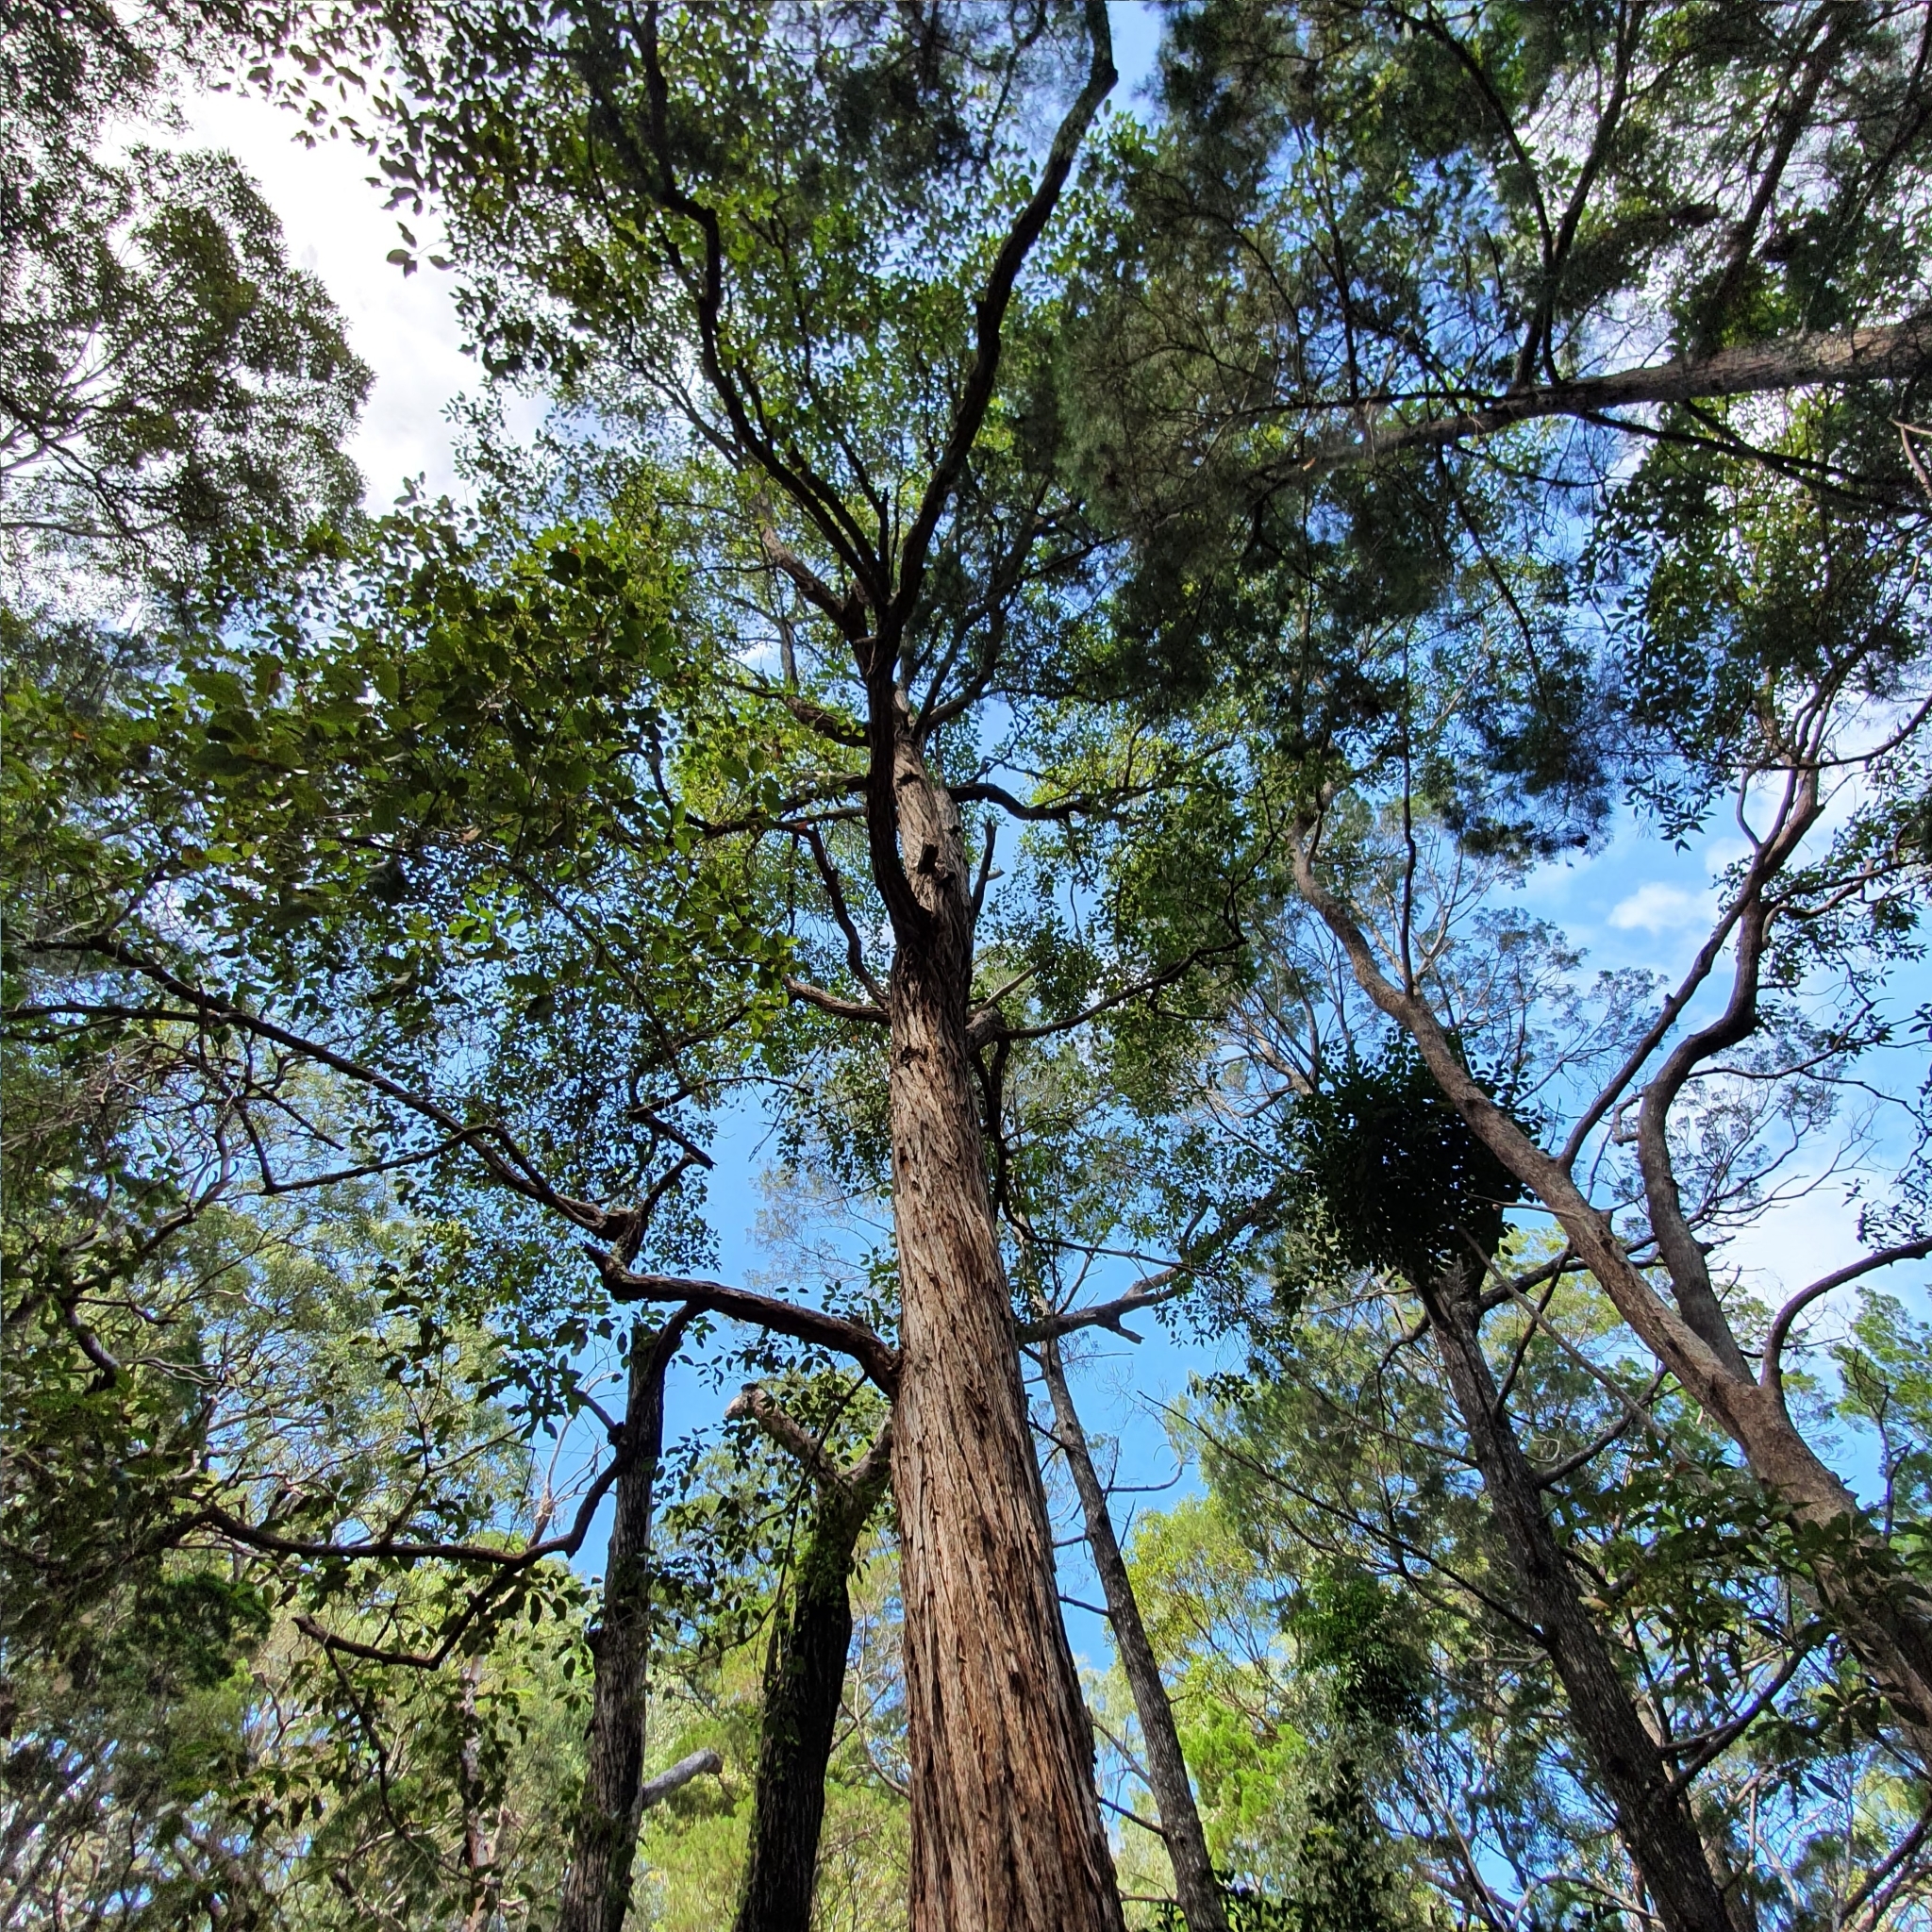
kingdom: Plantae
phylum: Tracheophyta
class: Magnoliopsida
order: Myrtales
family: Myrtaceae
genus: Syncarpia
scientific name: Syncarpia hillii
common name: Fraser island turpentine
